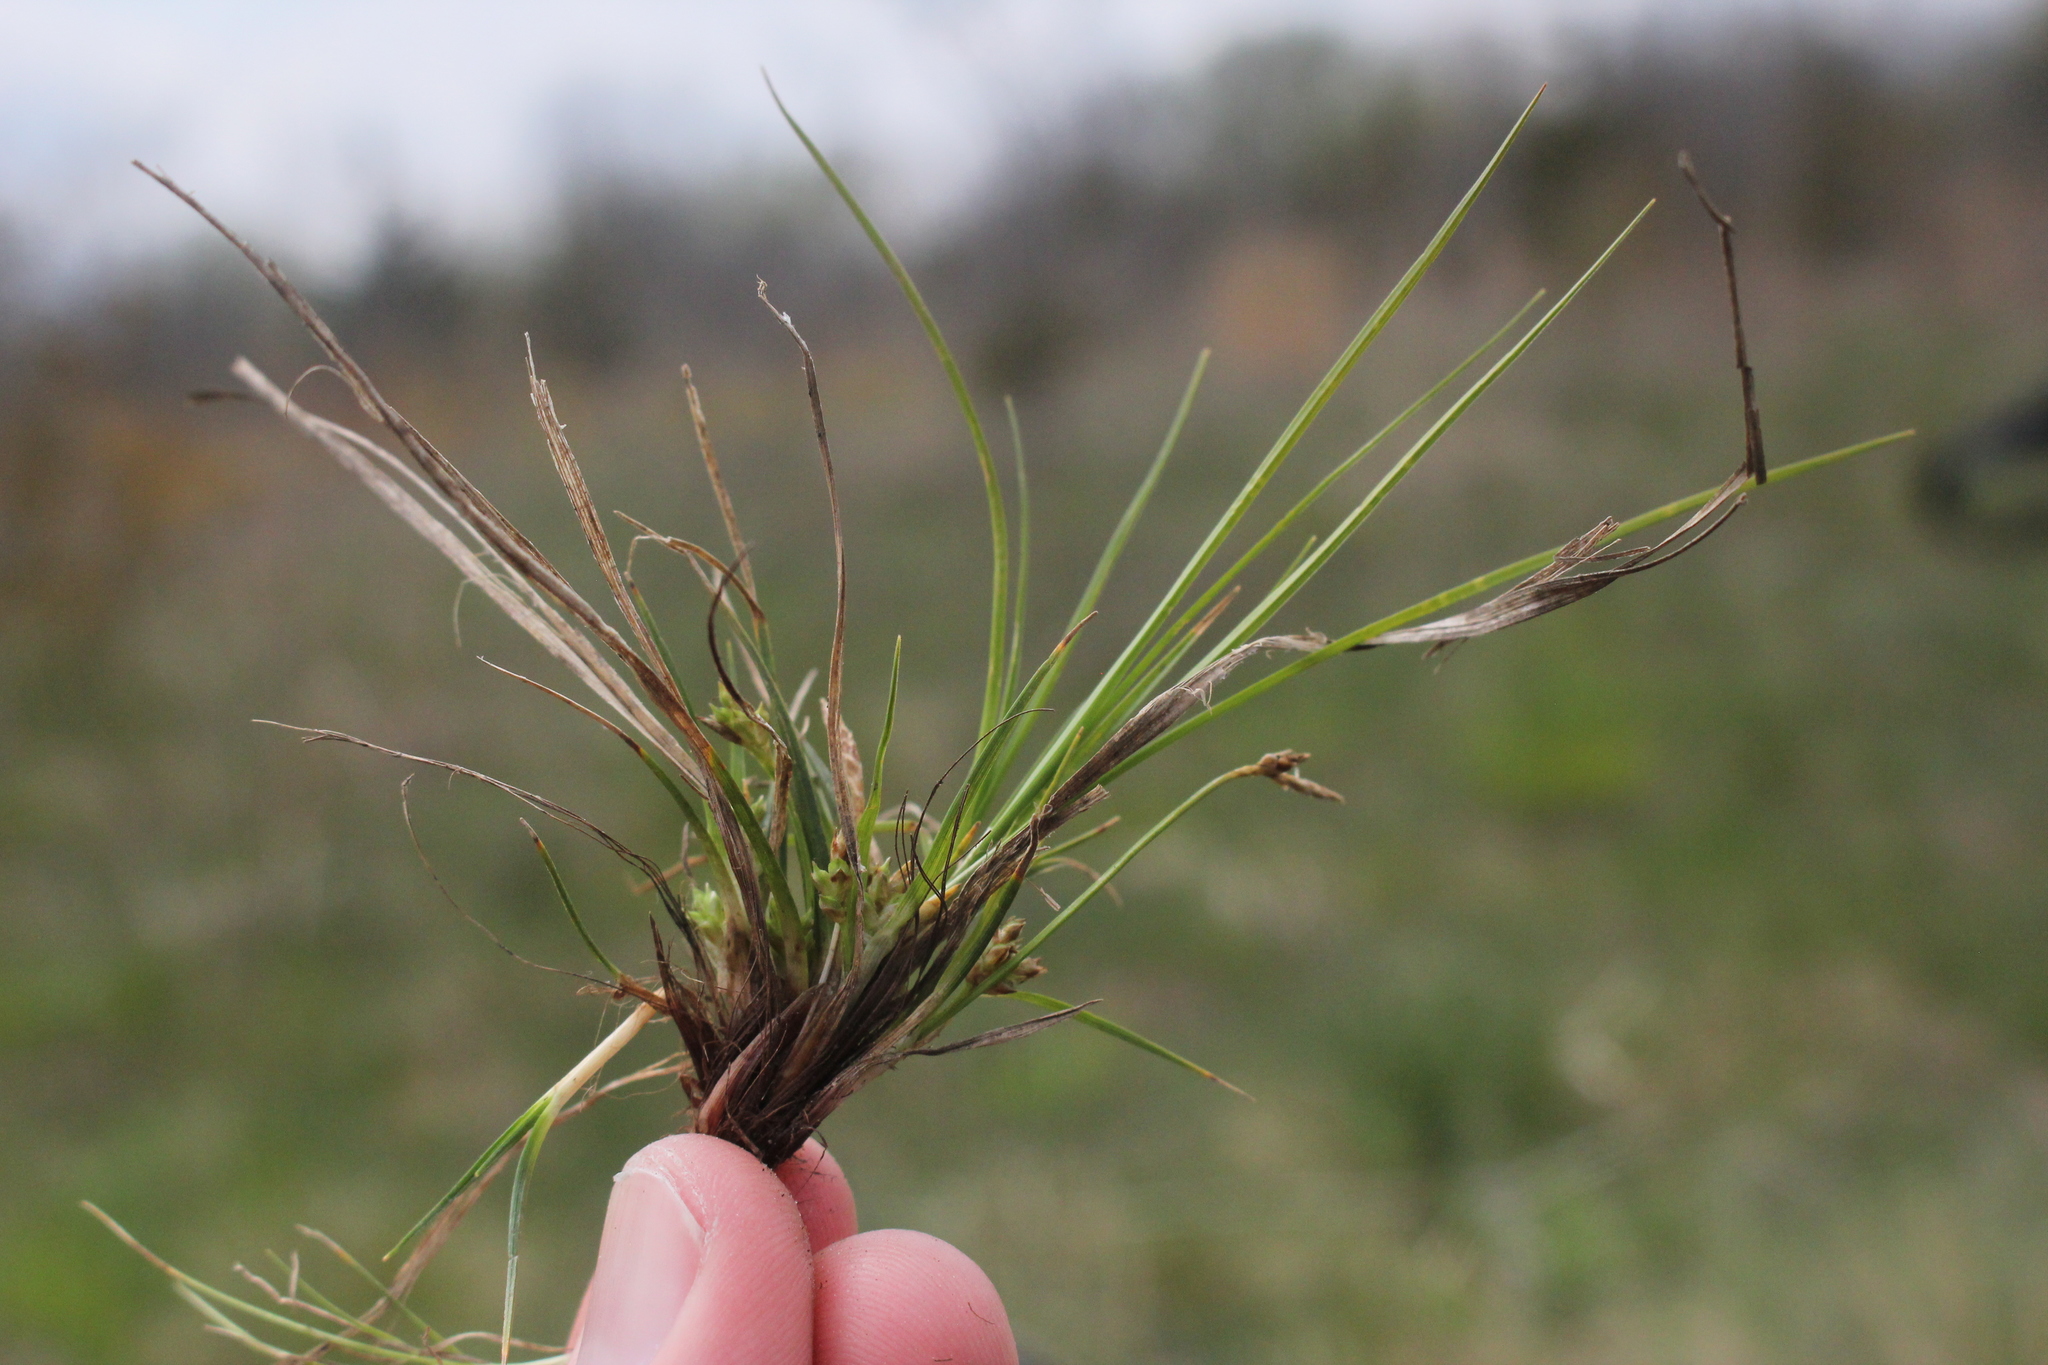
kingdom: Plantae
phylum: Tracheophyta
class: Liliopsida
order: Poales
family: Cyperaceae
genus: Carex
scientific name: Carex umbellata
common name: Early oak sedge
